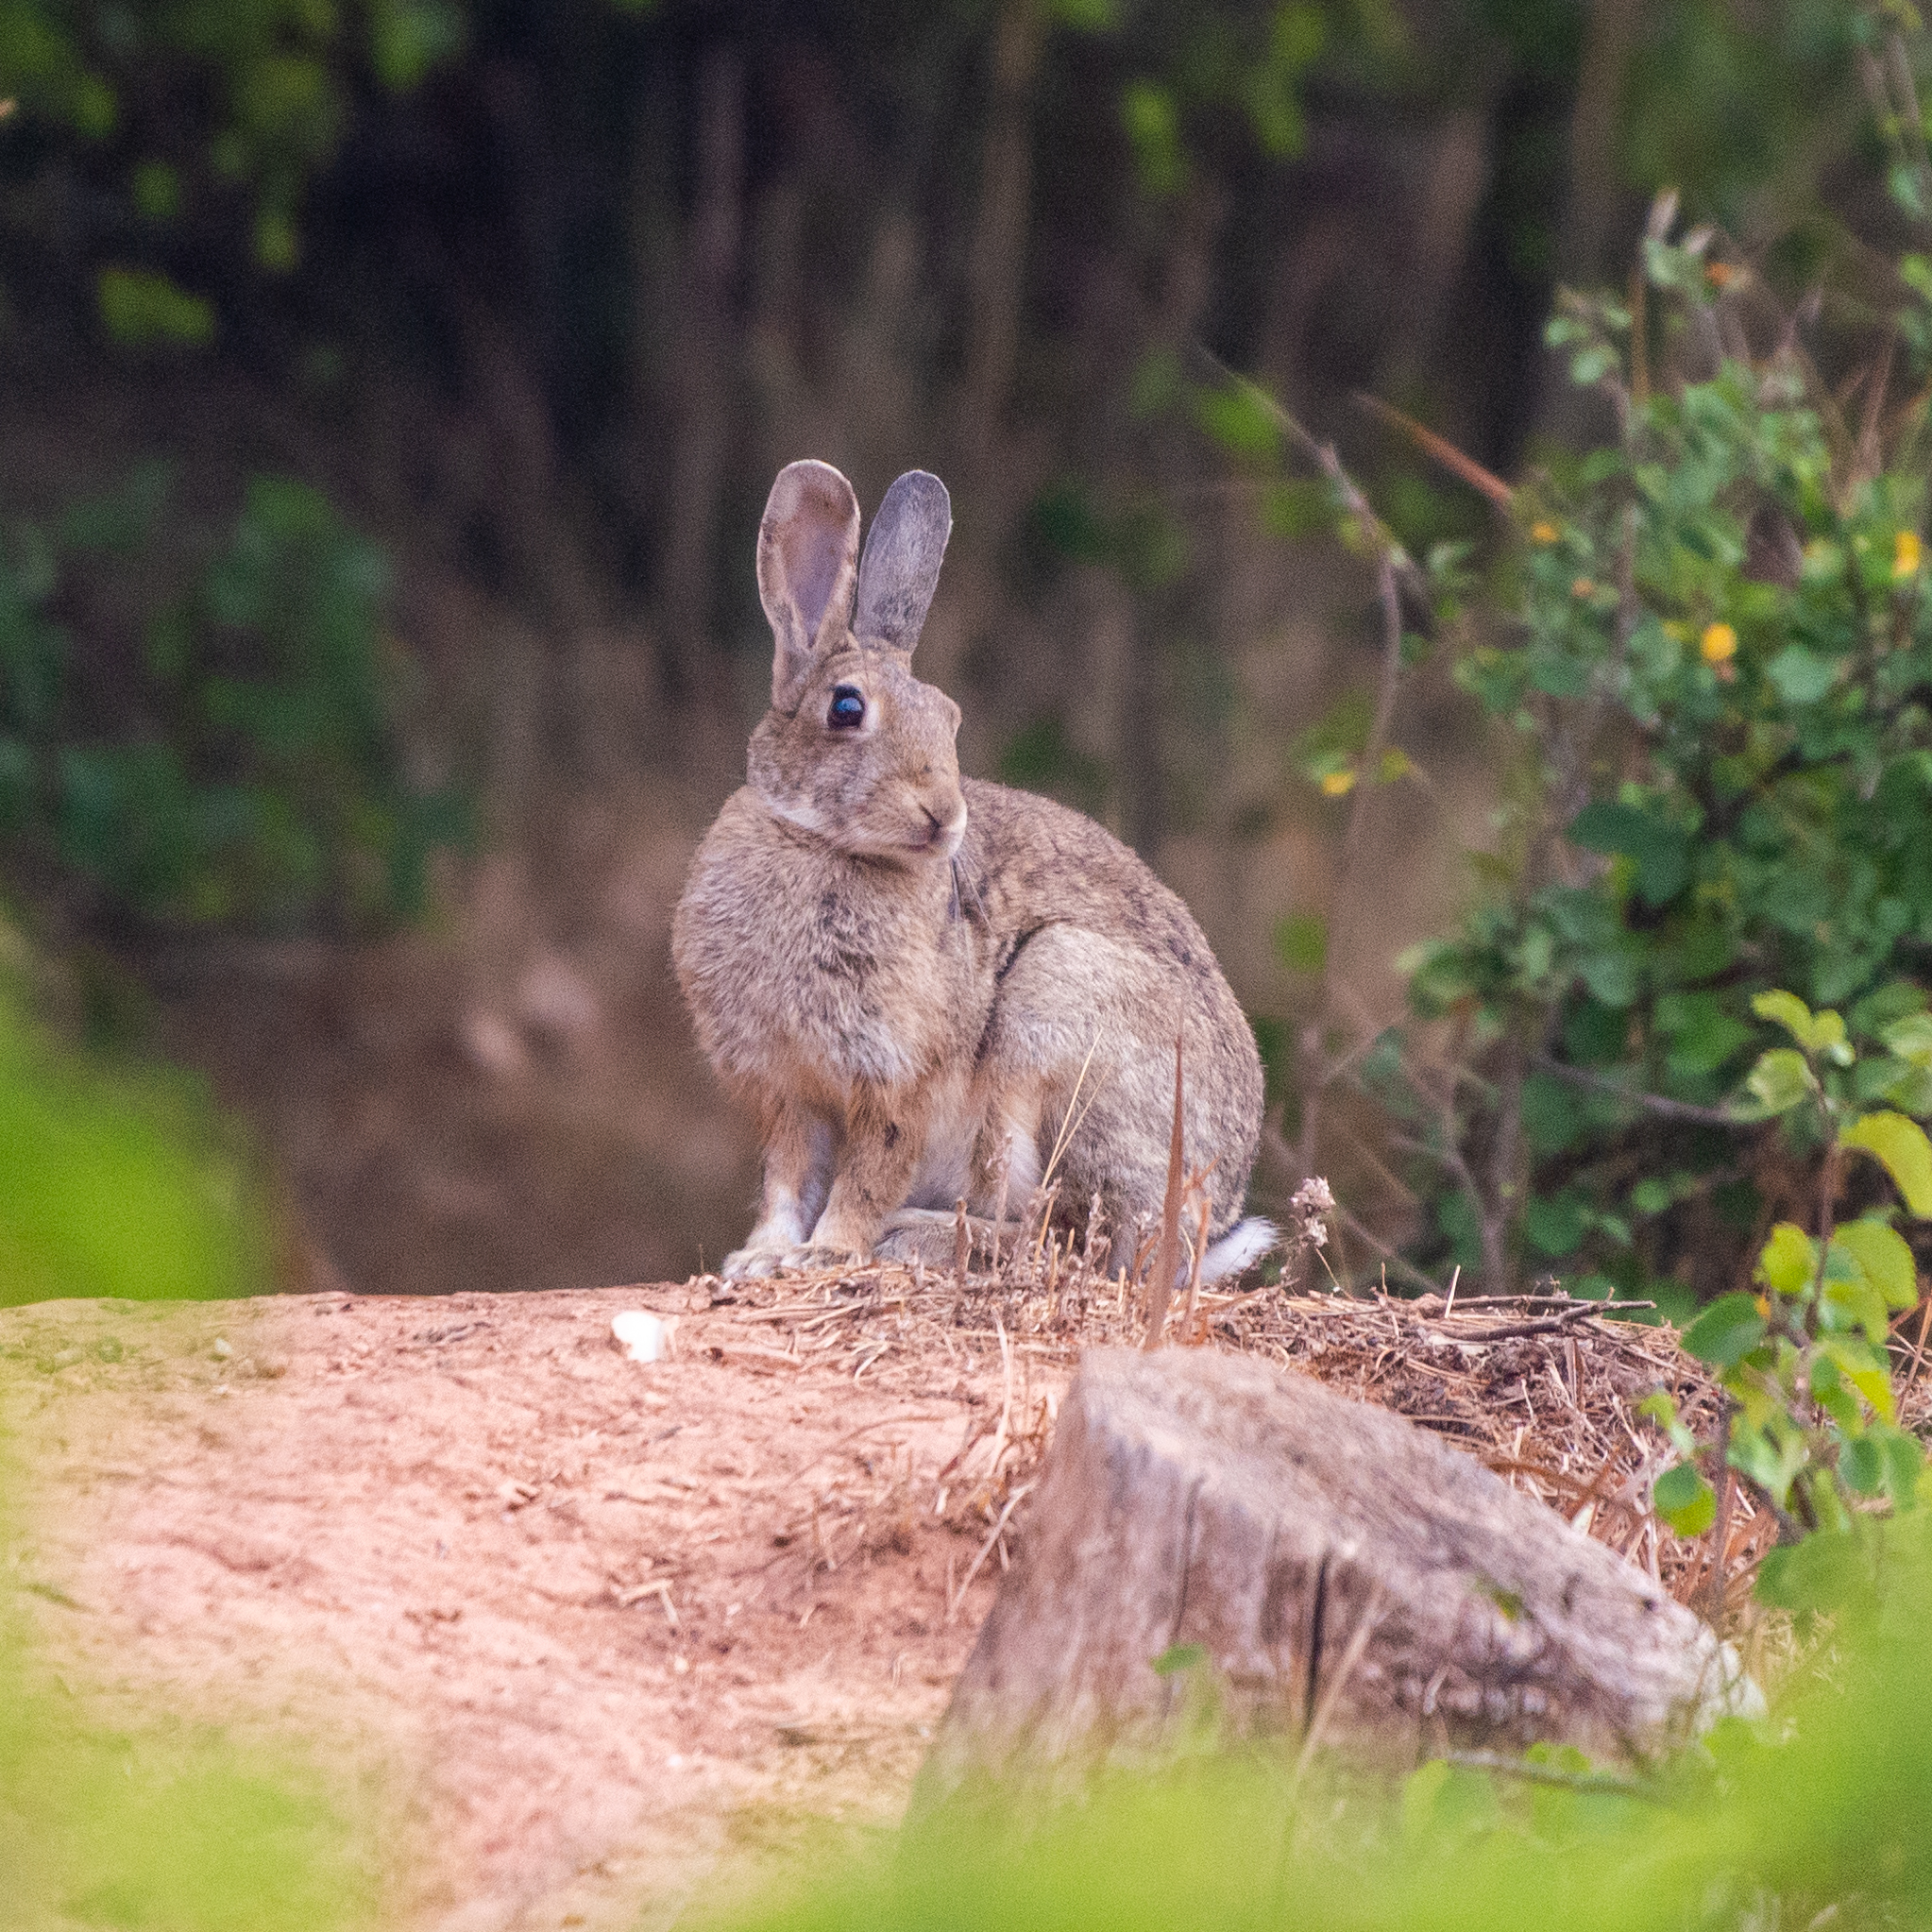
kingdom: Animalia
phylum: Chordata
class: Mammalia
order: Lagomorpha
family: Leporidae
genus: Oryctolagus
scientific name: Oryctolagus cuniculus
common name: European rabbit
